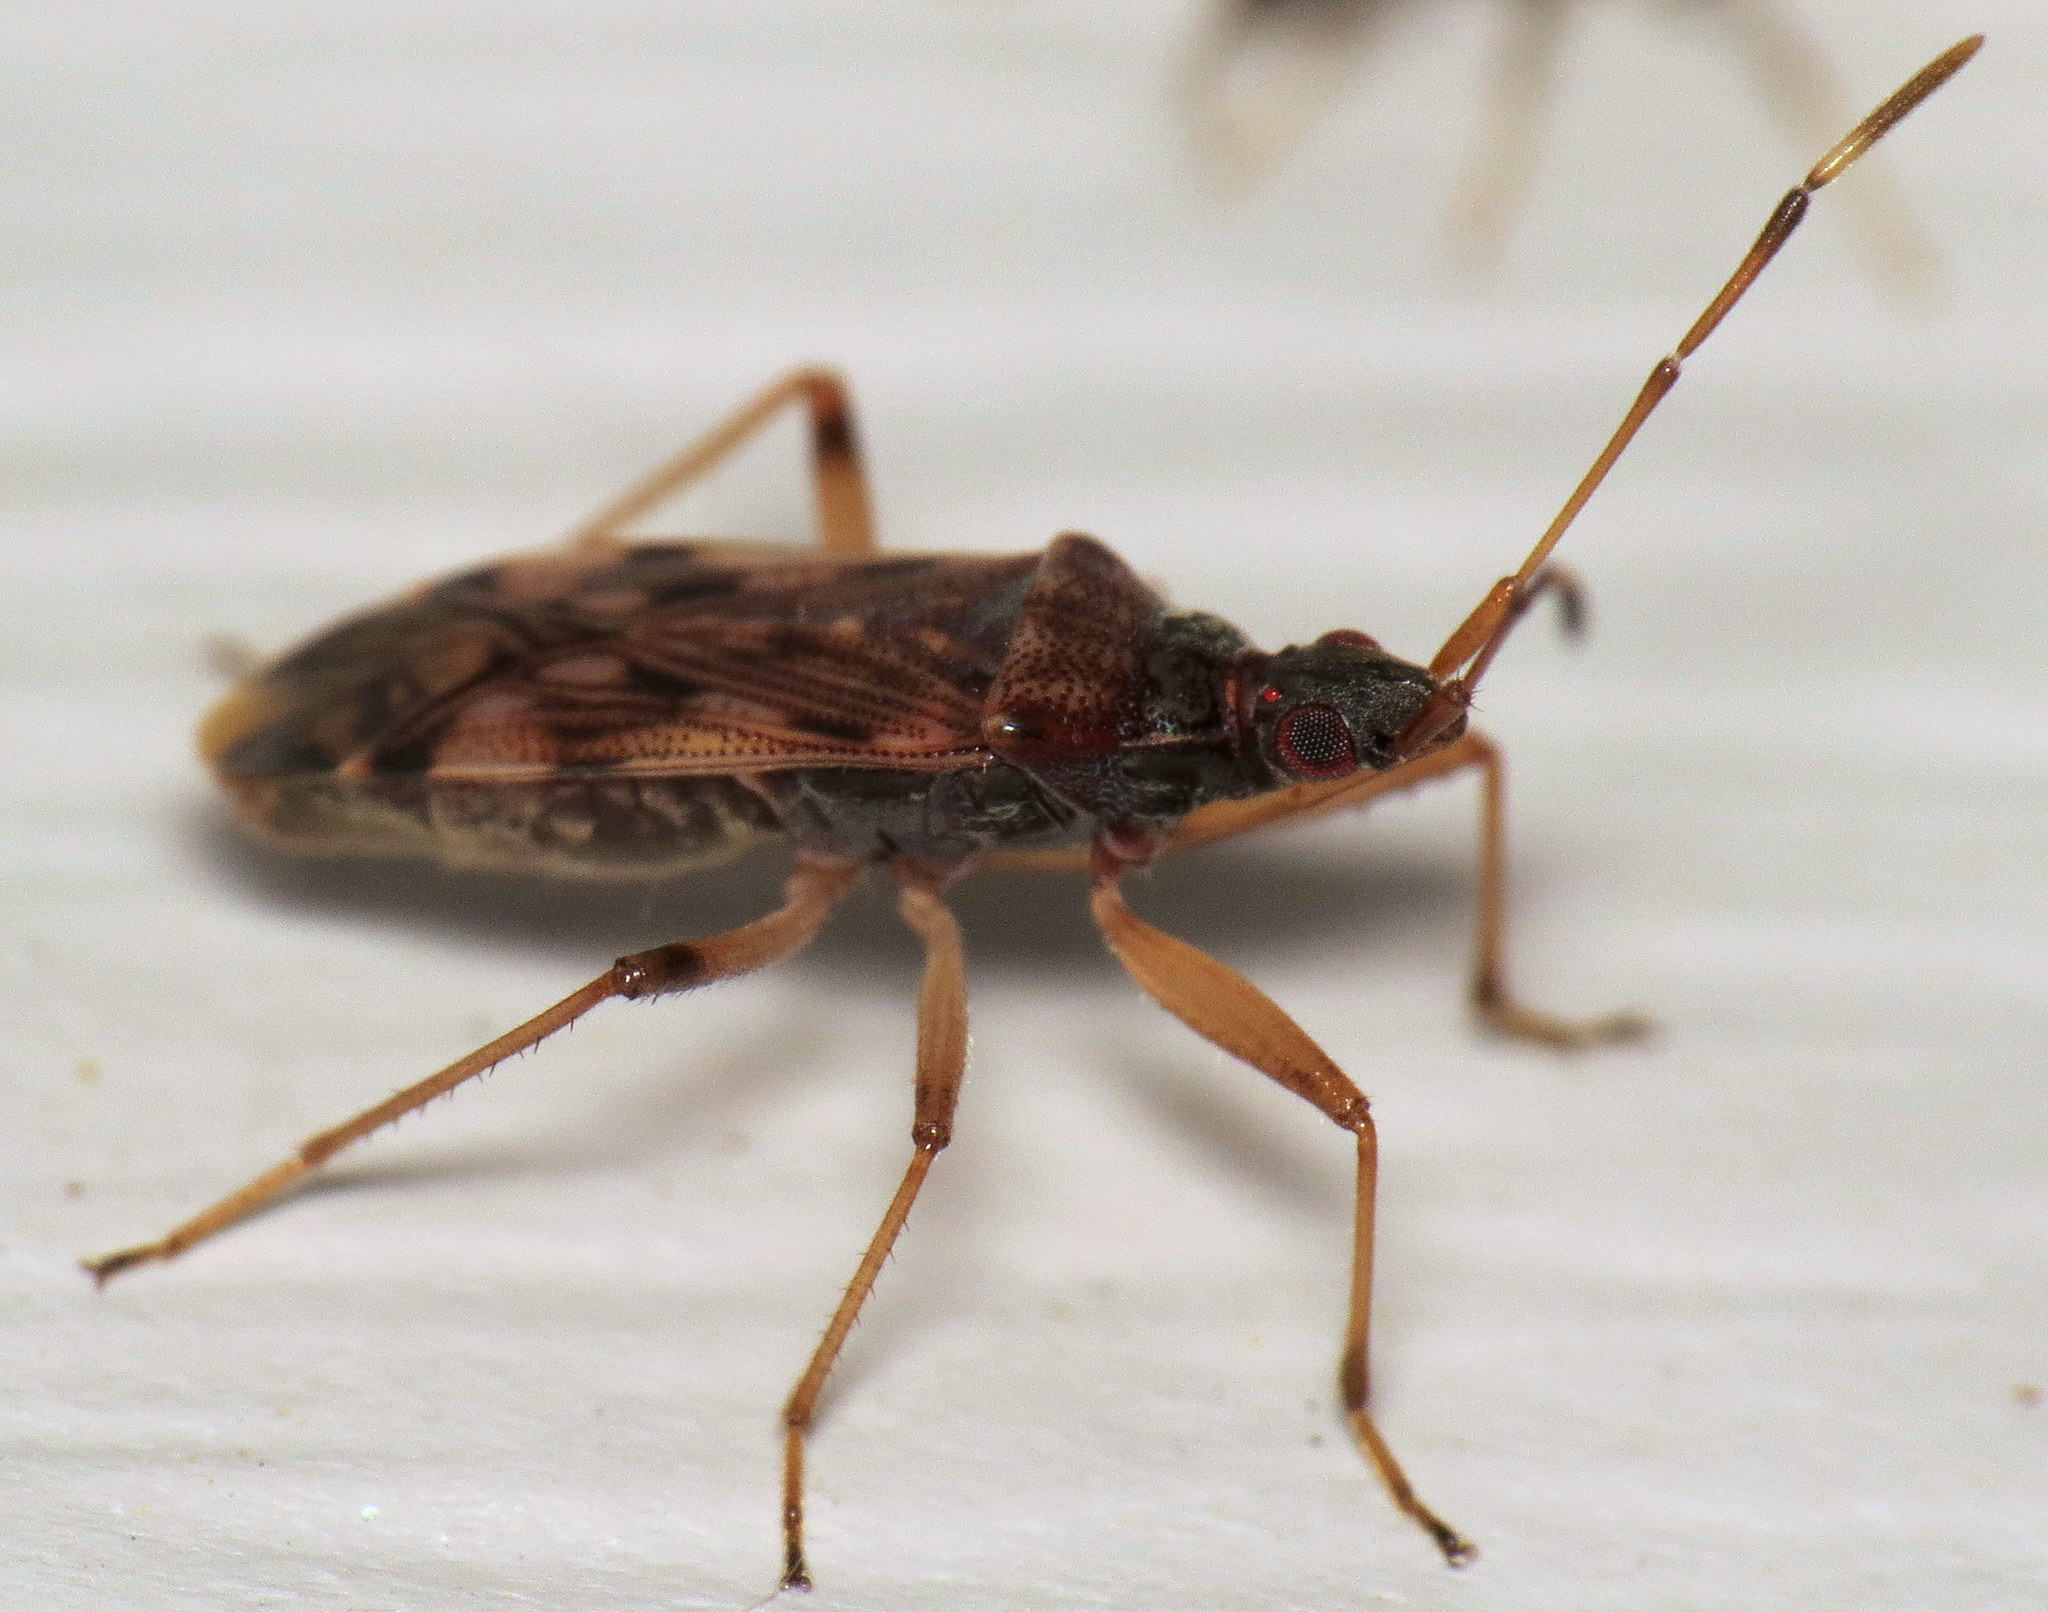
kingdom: Animalia
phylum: Arthropoda
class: Insecta
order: Hemiptera
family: Rhyparochromidae
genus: Ozophora
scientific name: Ozophora picturata
